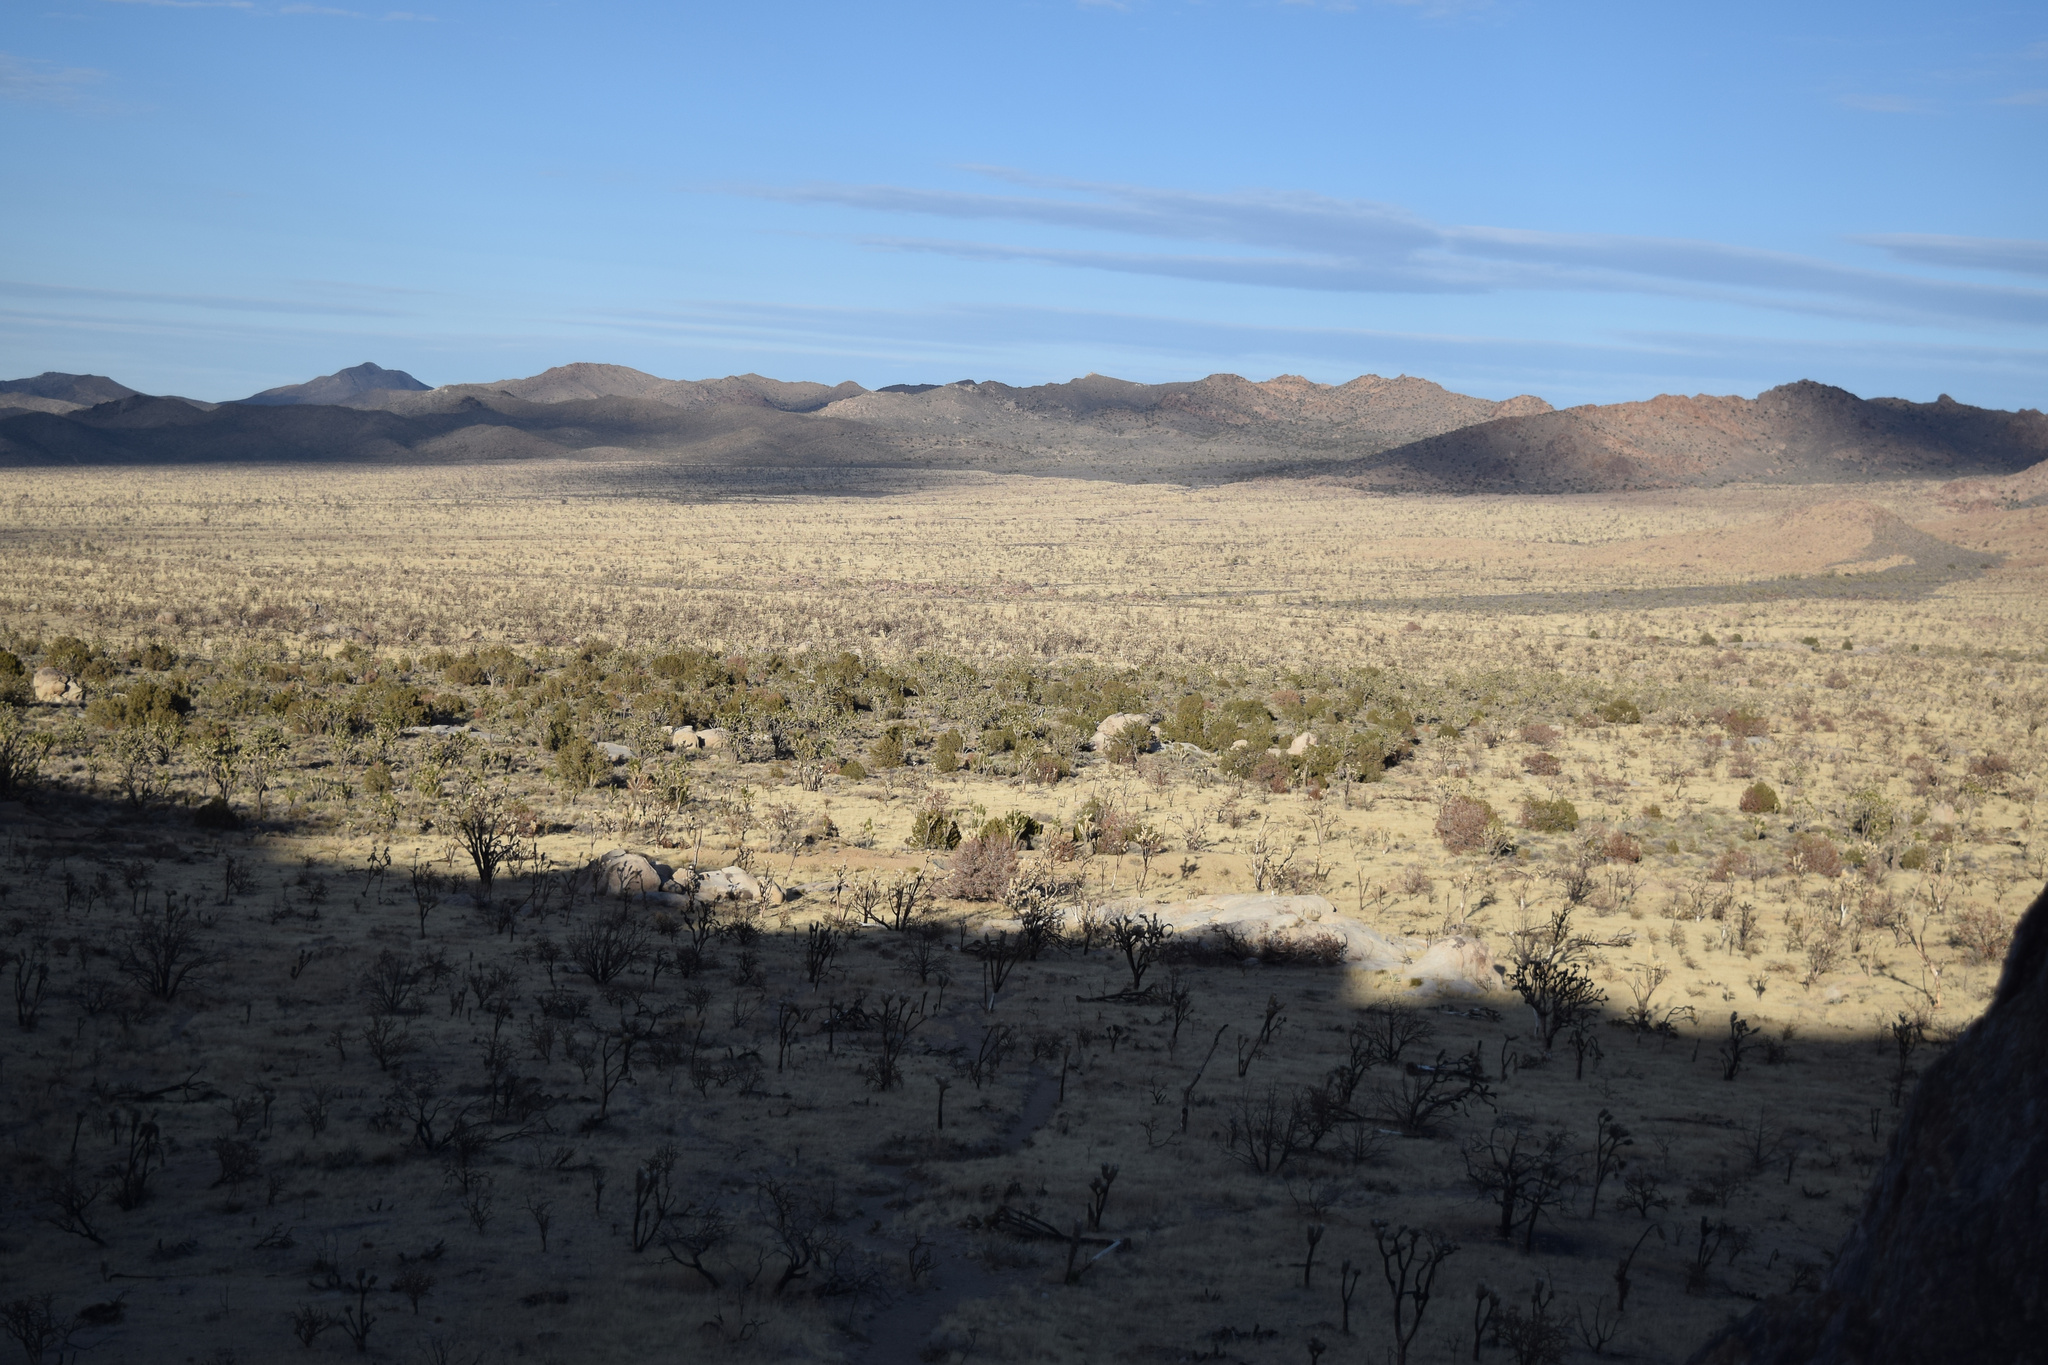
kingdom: Plantae
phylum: Tracheophyta
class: Liliopsida
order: Asparagales
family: Asparagaceae
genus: Yucca
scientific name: Yucca brevifolia
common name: Joshua tree
